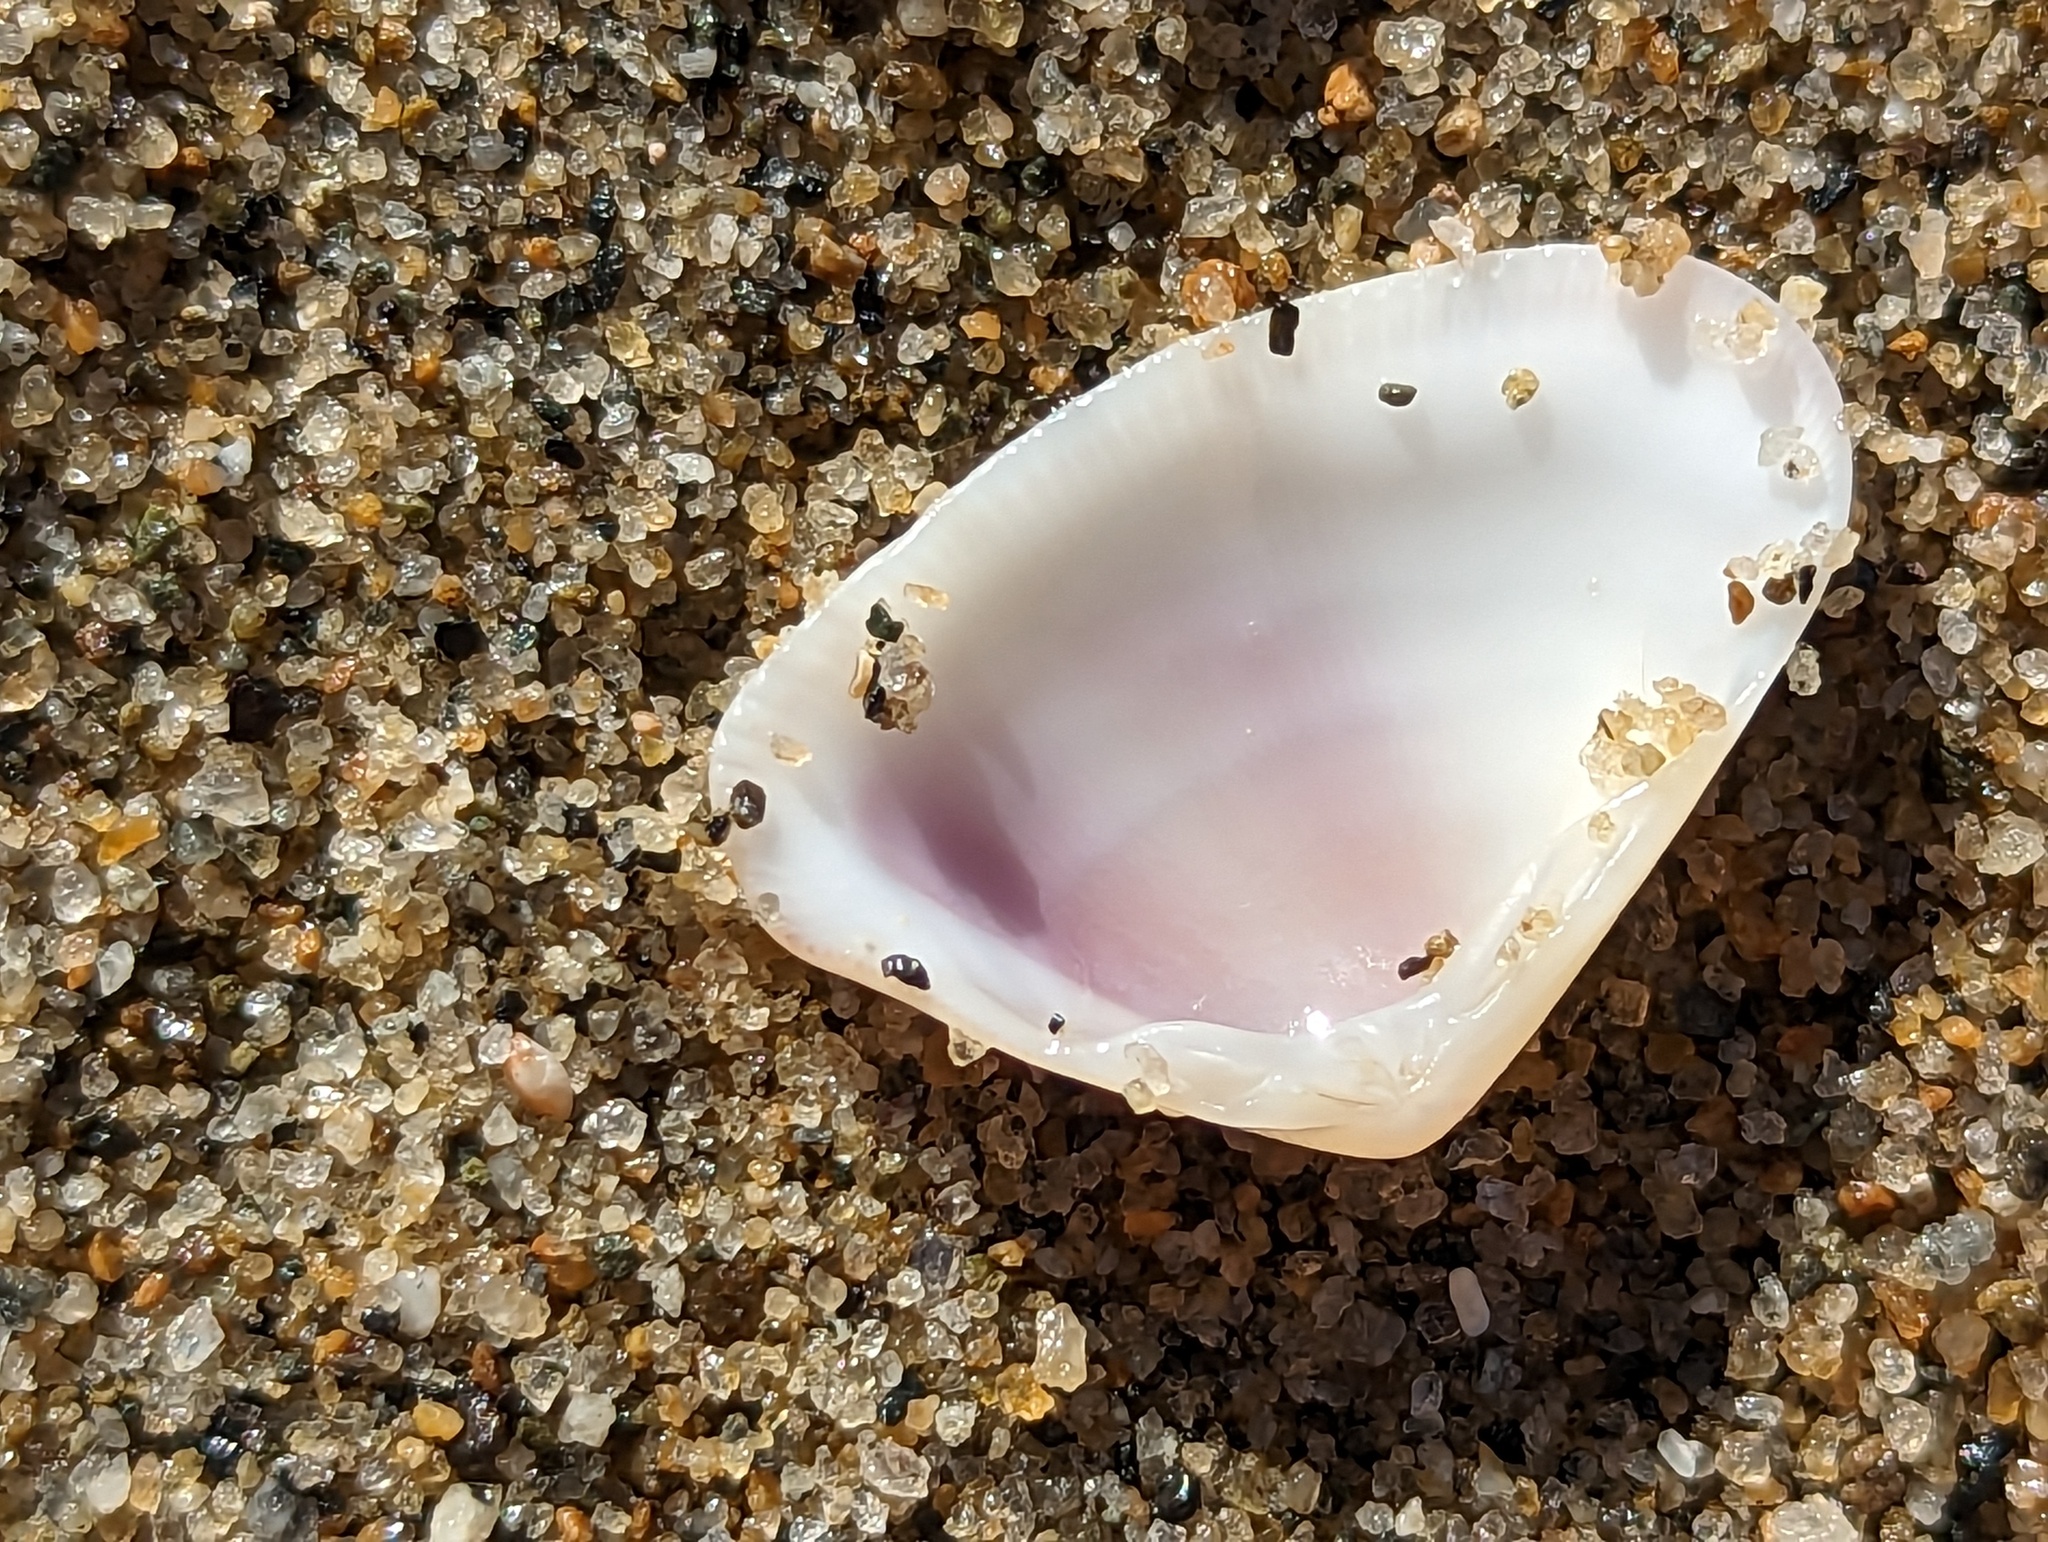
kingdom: Animalia
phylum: Mollusca
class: Bivalvia
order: Cardiida
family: Donacidae
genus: Donax
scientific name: Donax denticulatus
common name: Common caribbean coquina
